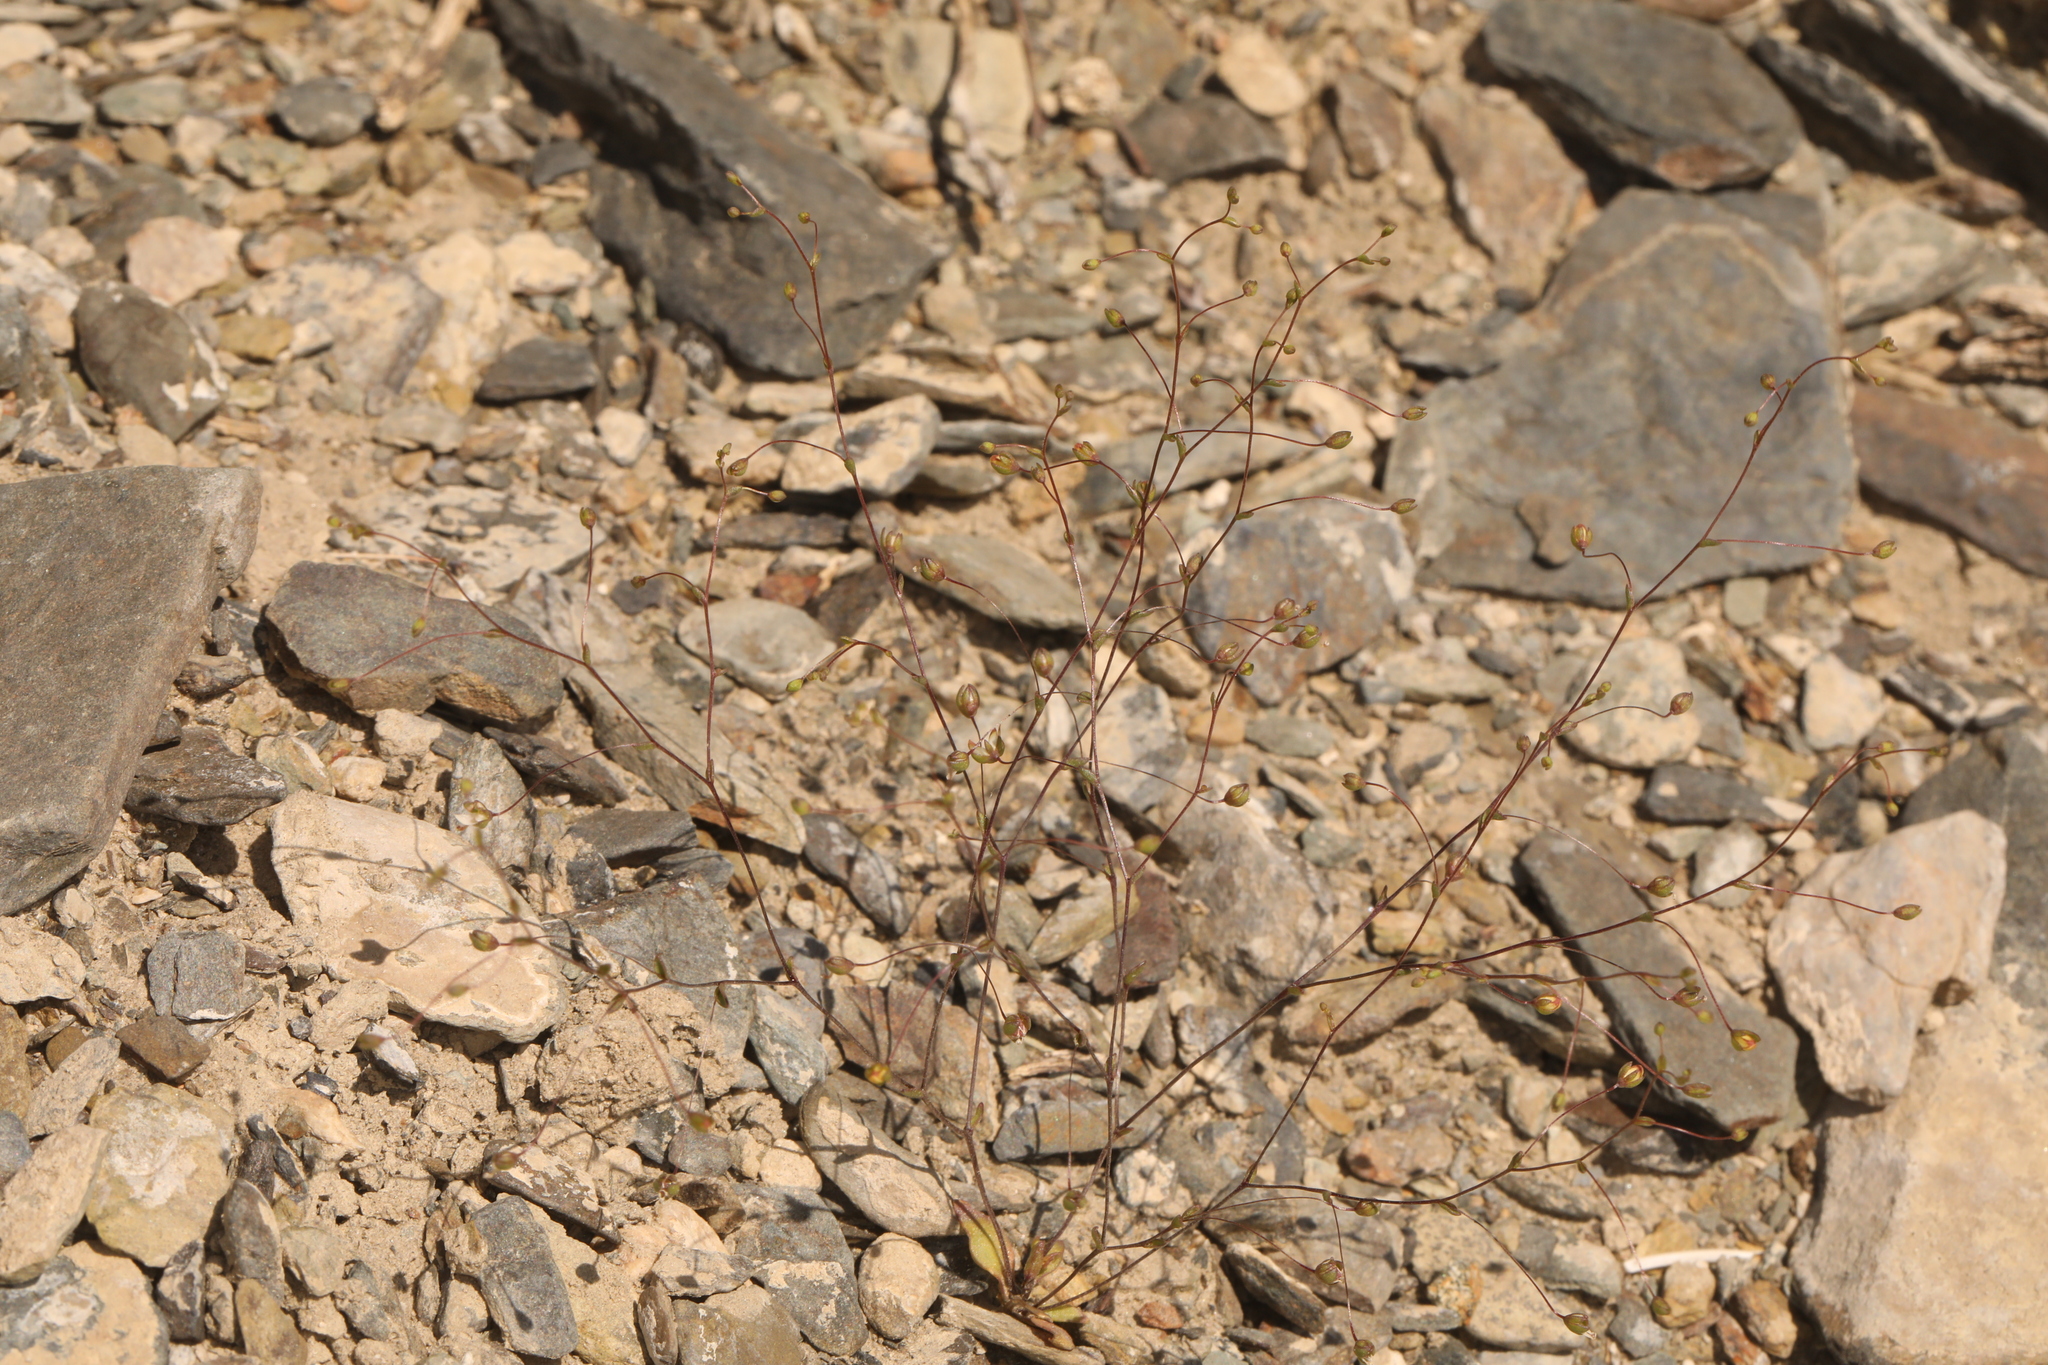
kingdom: Plantae
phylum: Tracheophyta
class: Magnoliopsida
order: Asterales
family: Campanulaceae
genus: Nemacladus
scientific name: Nemacladus morefieldii
